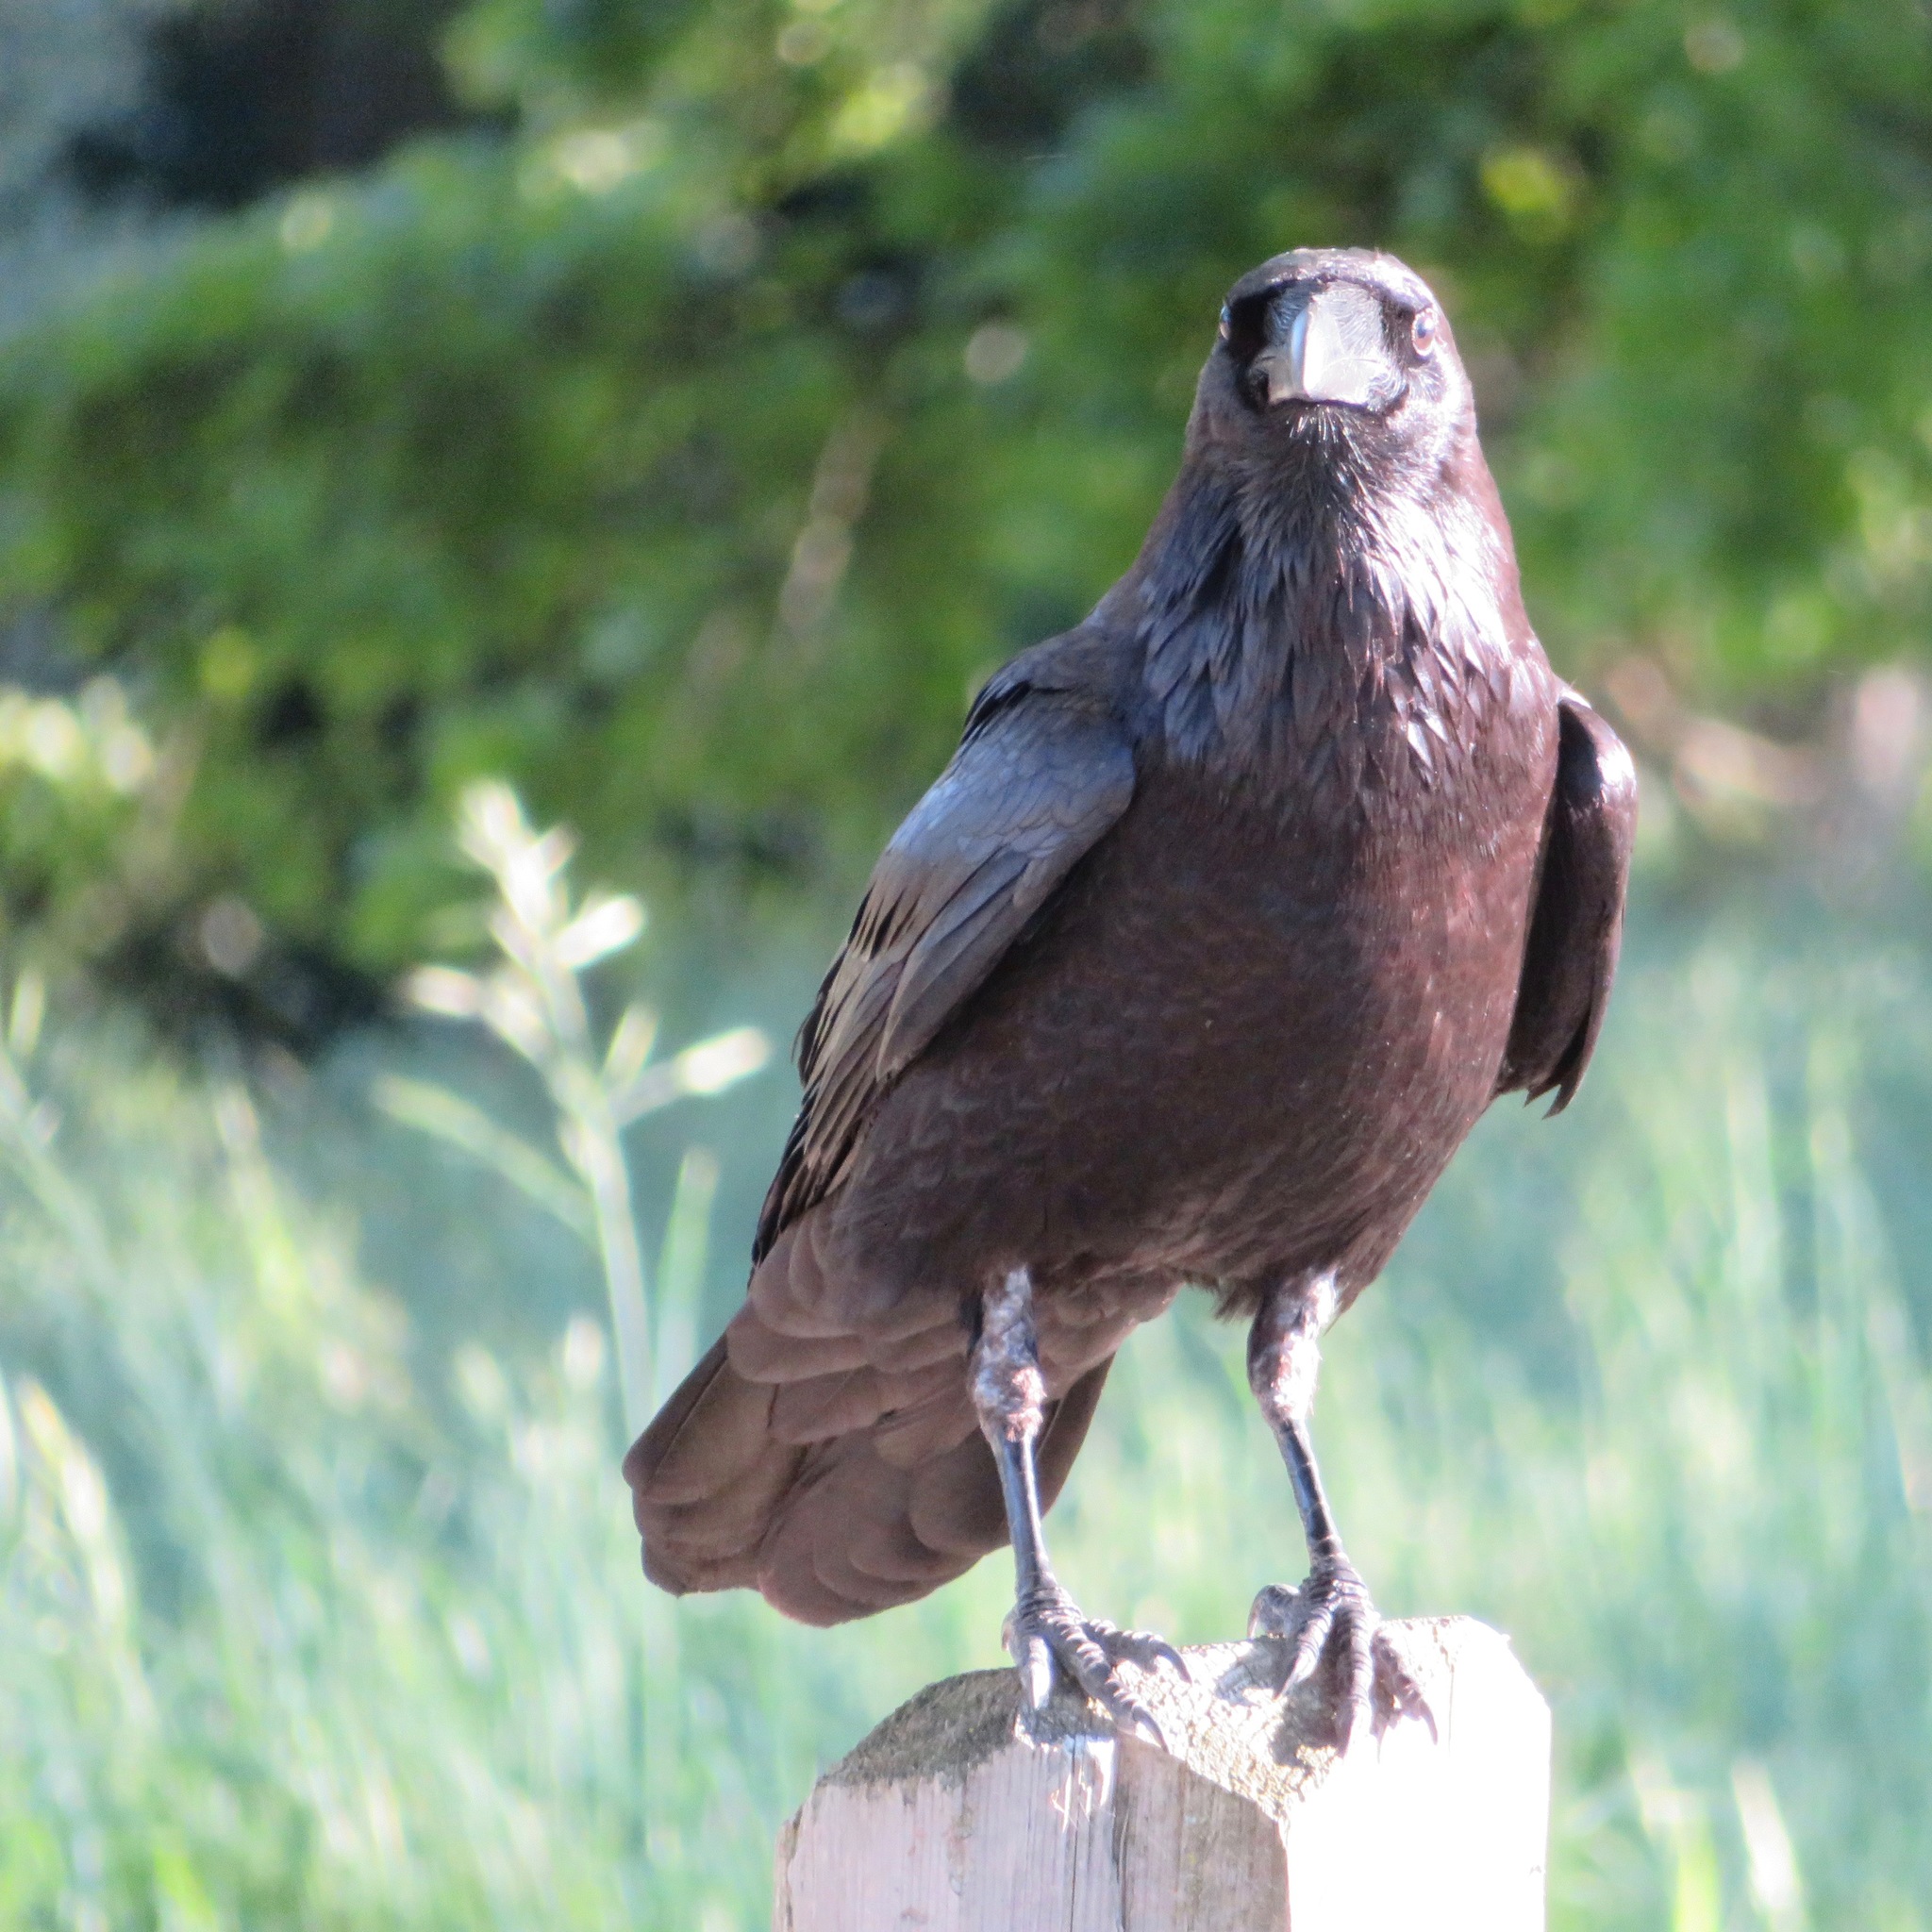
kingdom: Animalia
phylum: Chordata
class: Aves
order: Passeriformes
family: Corvidae
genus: Corvus
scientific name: Corvus corax
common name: Common raven
